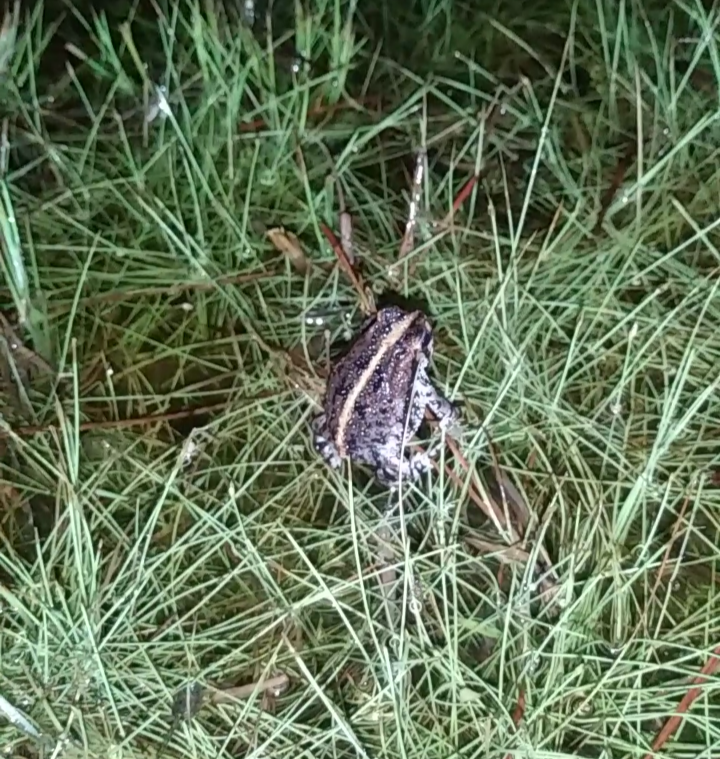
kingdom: Animalia
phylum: Chordata
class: Amphibia
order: Anura
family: Bufonidae
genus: Anaxyrus
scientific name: Anaxyrus quercicus
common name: Oak toad
